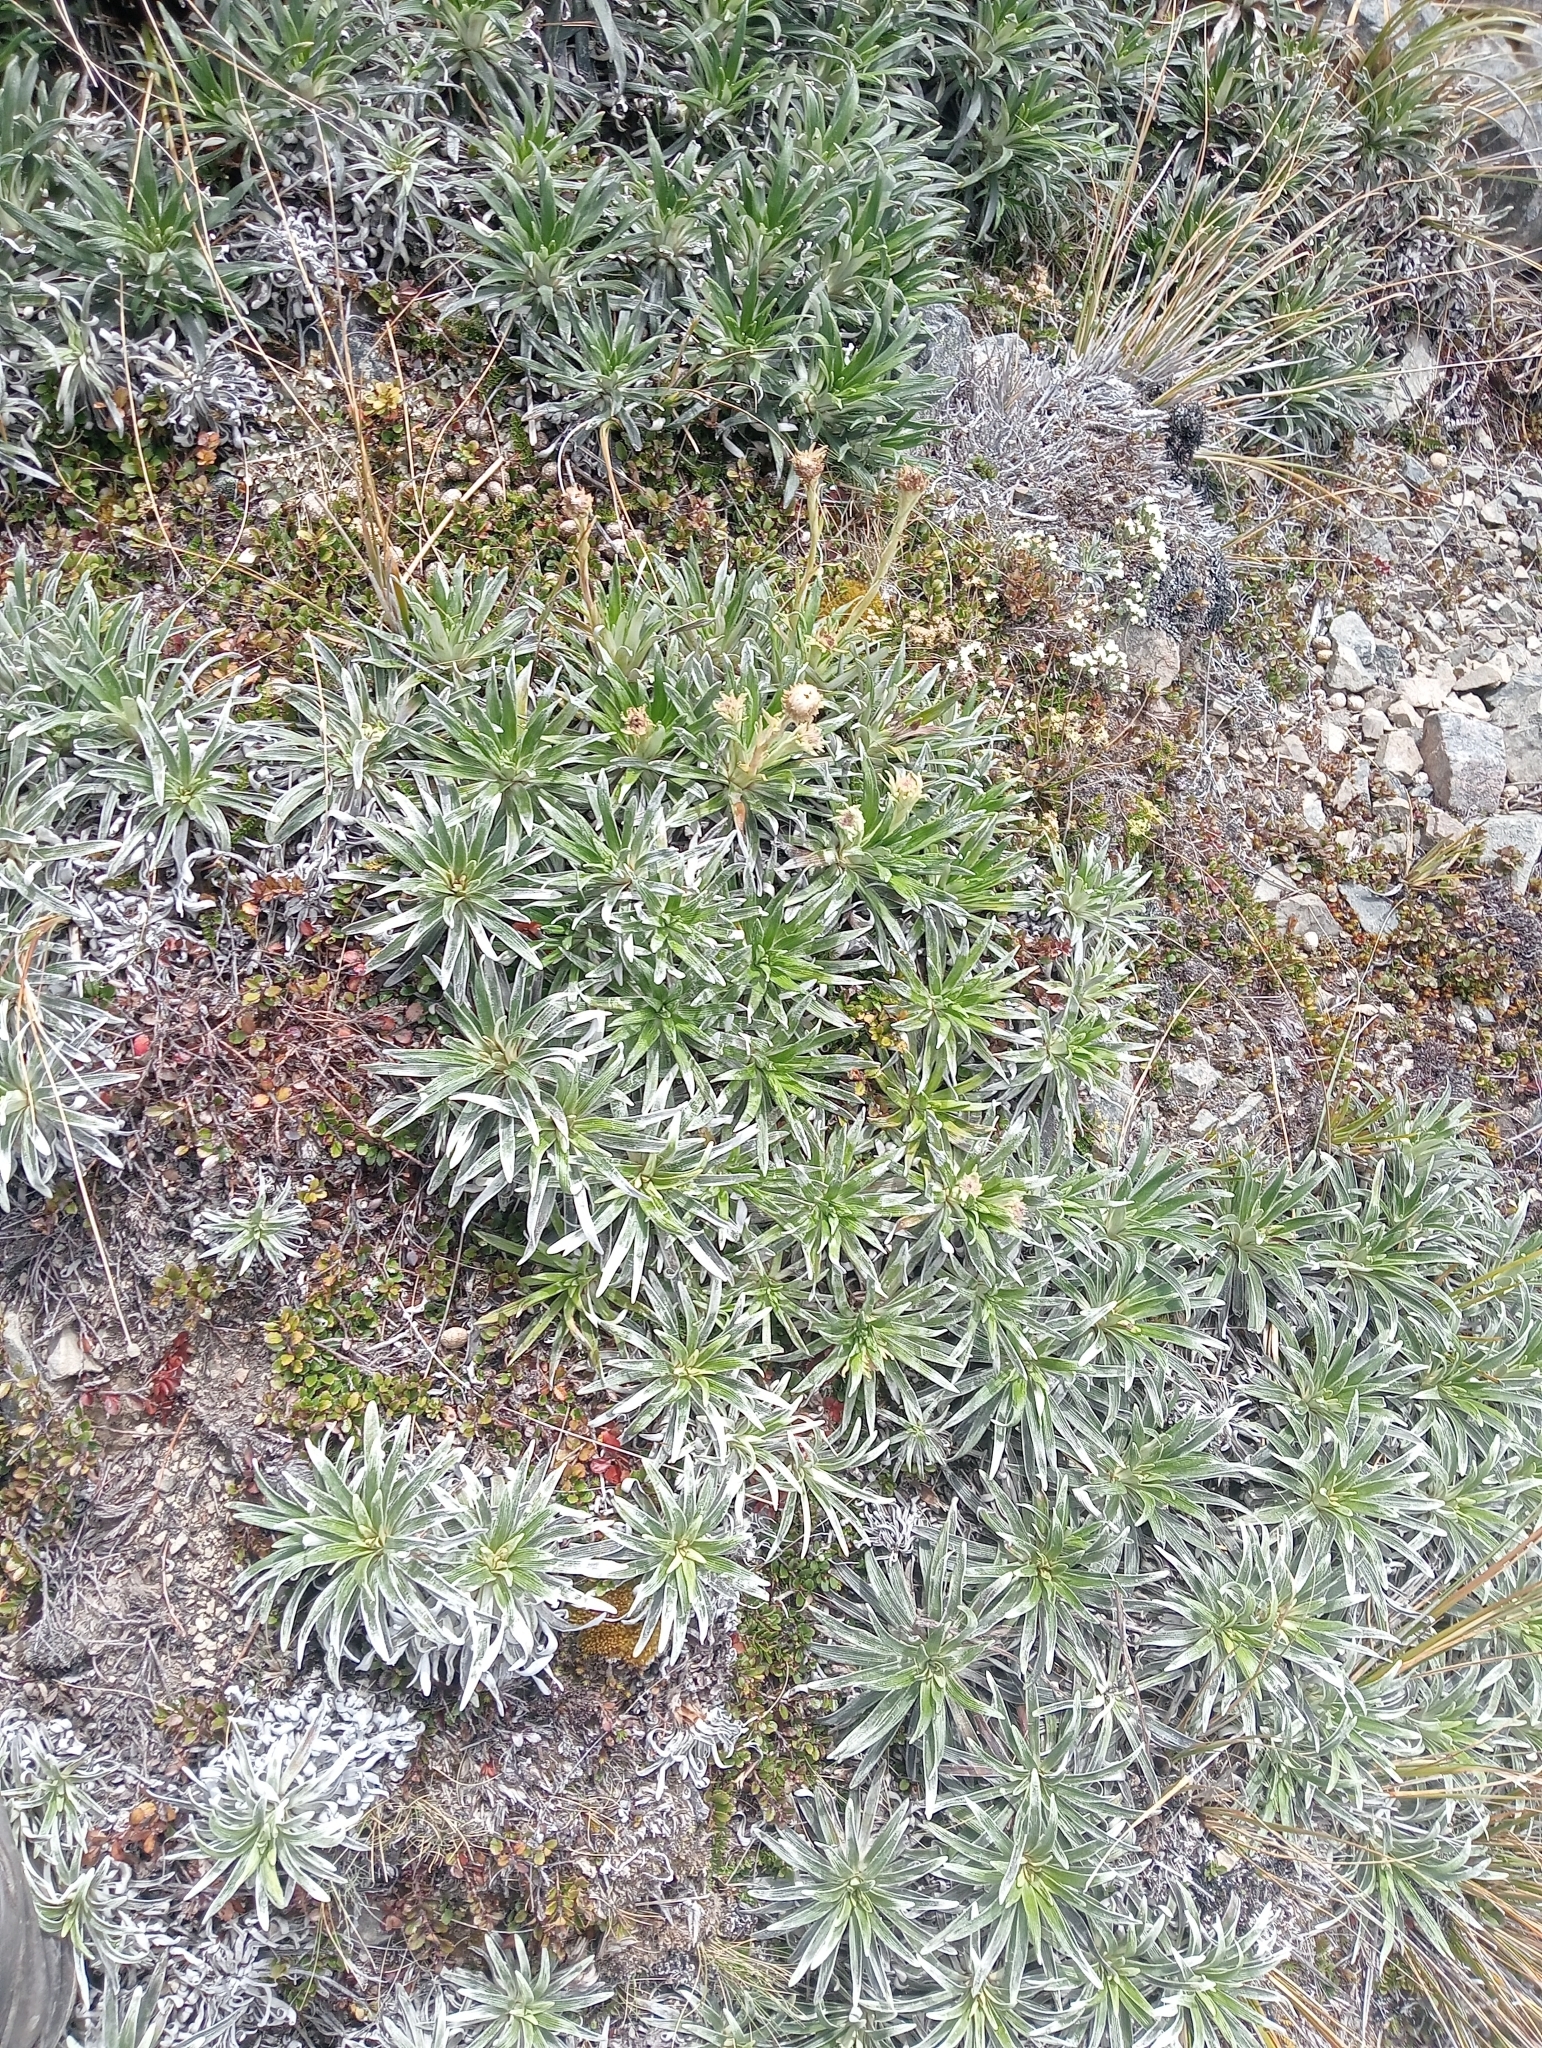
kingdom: Plantae
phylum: Tracheophyta
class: Magnoliopsida
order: Asterales
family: Asteraceae
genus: Celmisia
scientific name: Celmisia viscosa
